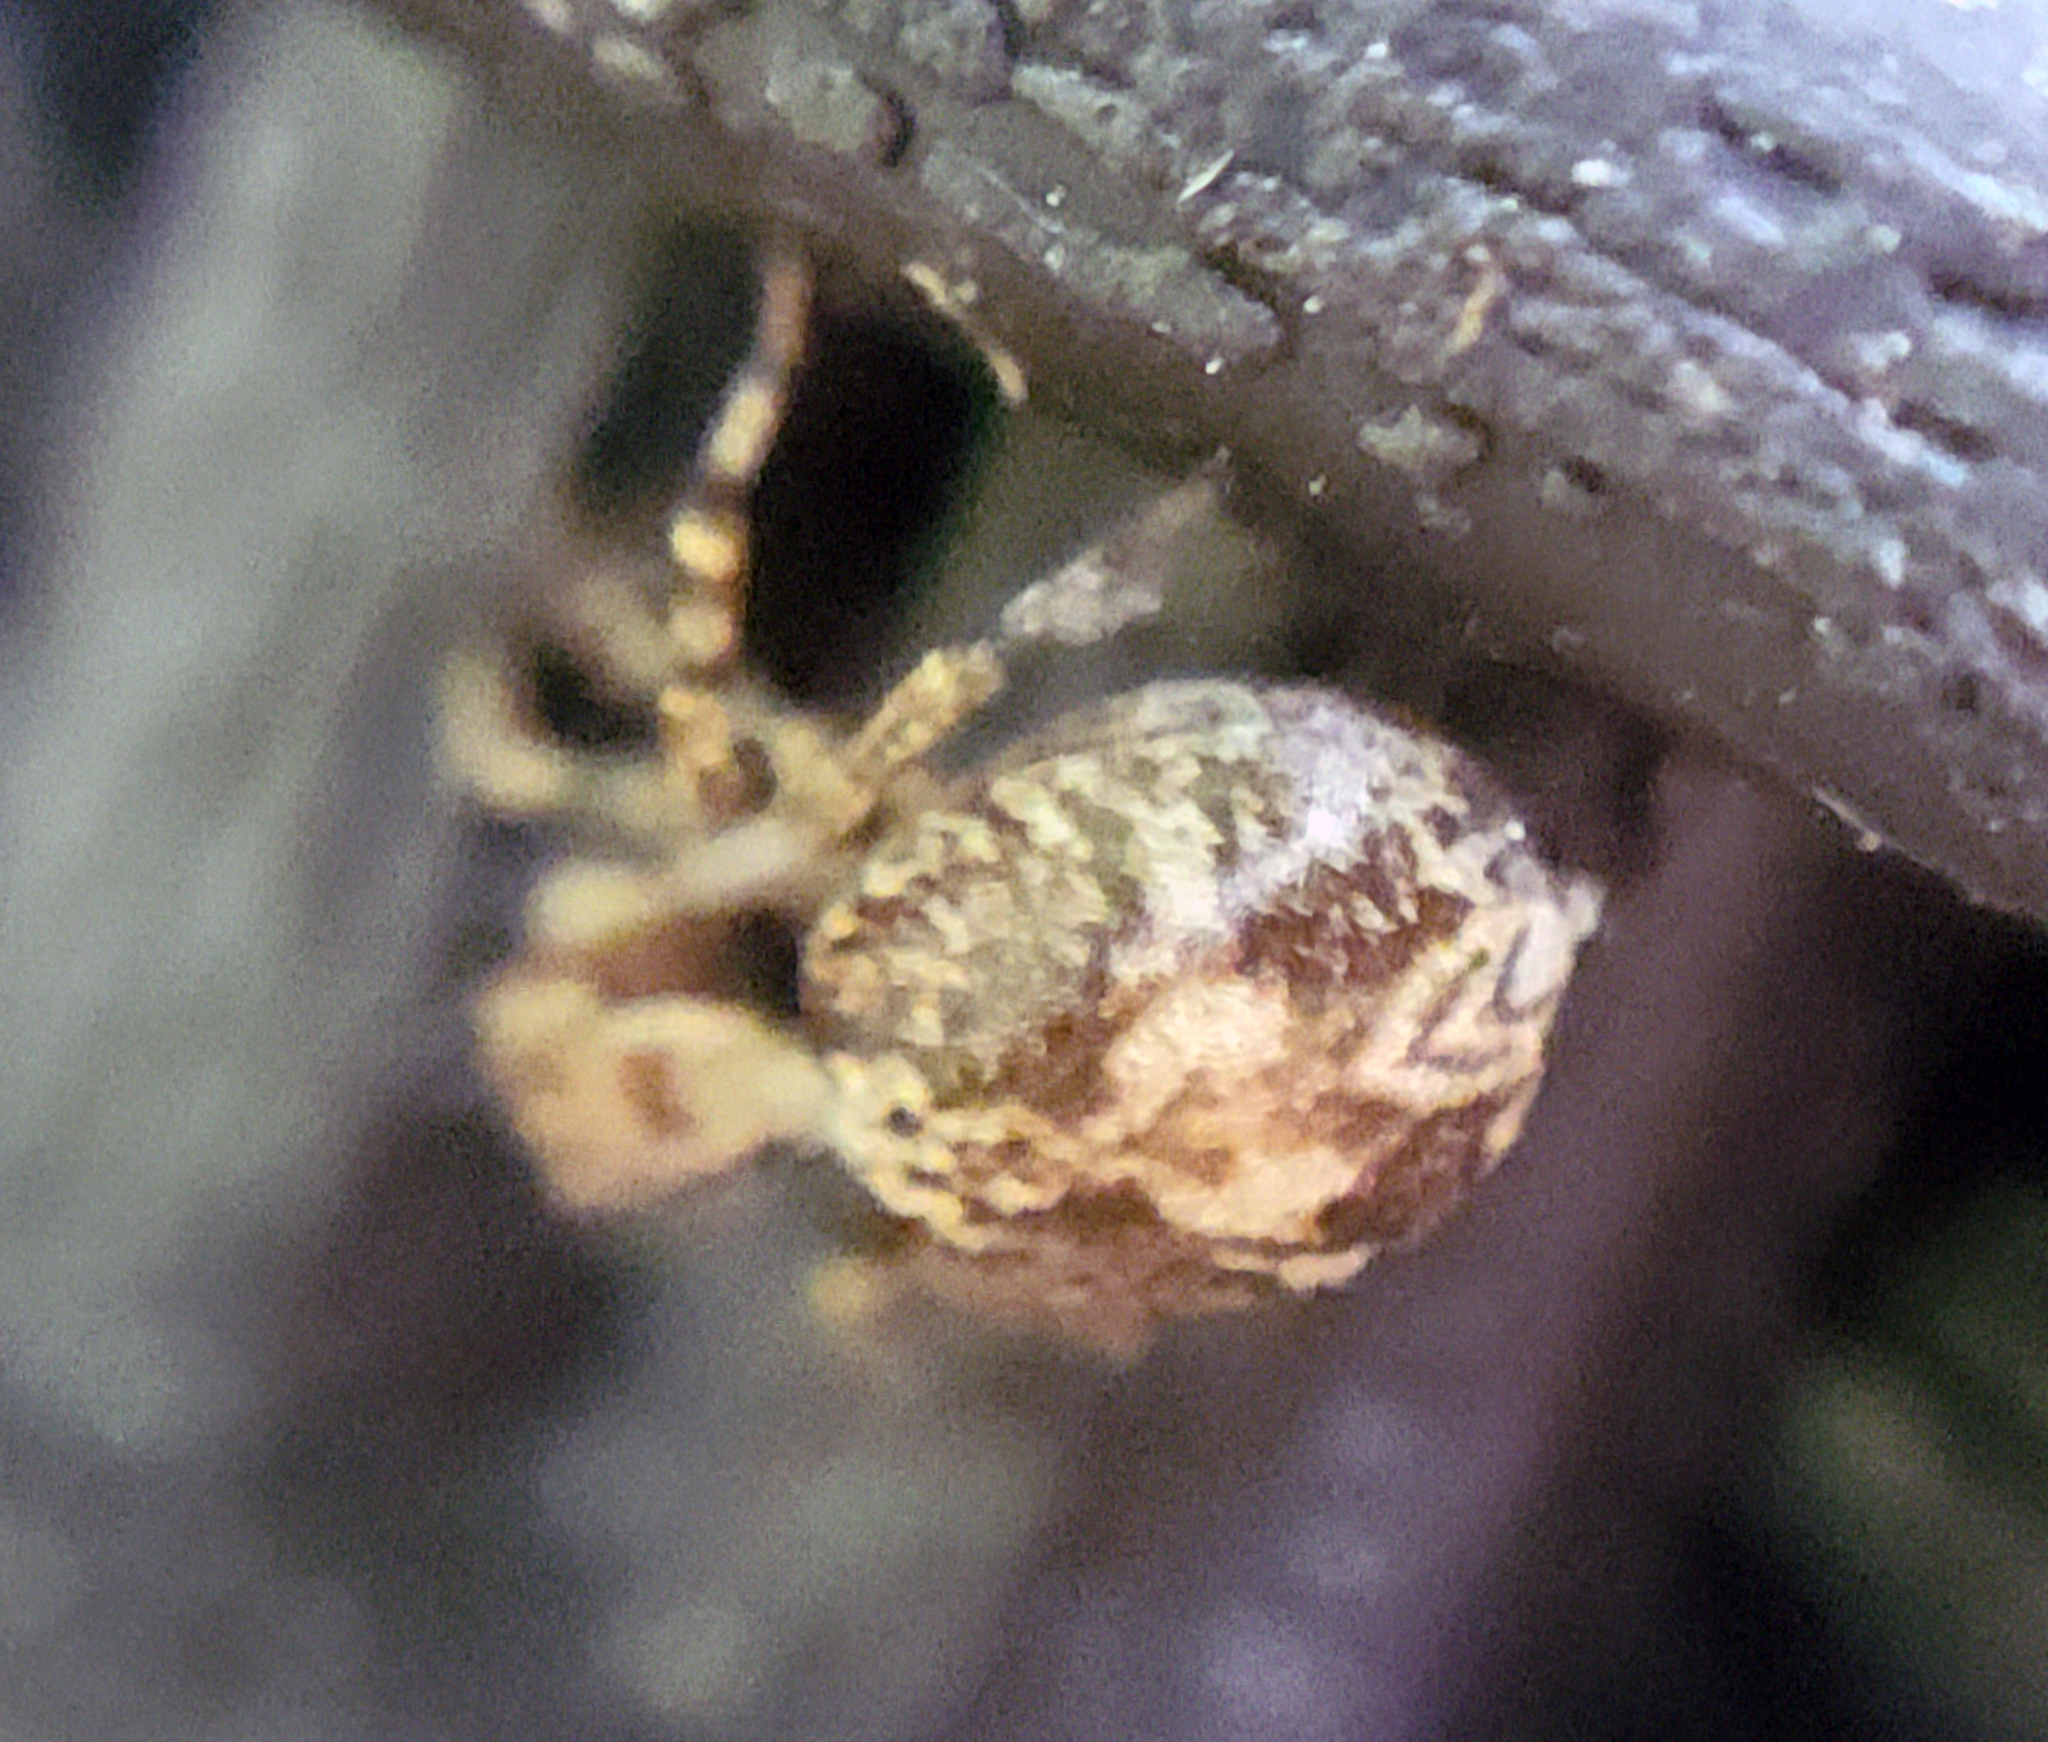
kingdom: Animalia
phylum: Arthropoda
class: Arachnida
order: Araneae
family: Salticidae
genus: Naphrys
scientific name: Naphrys pulex
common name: Flea jumping spider
